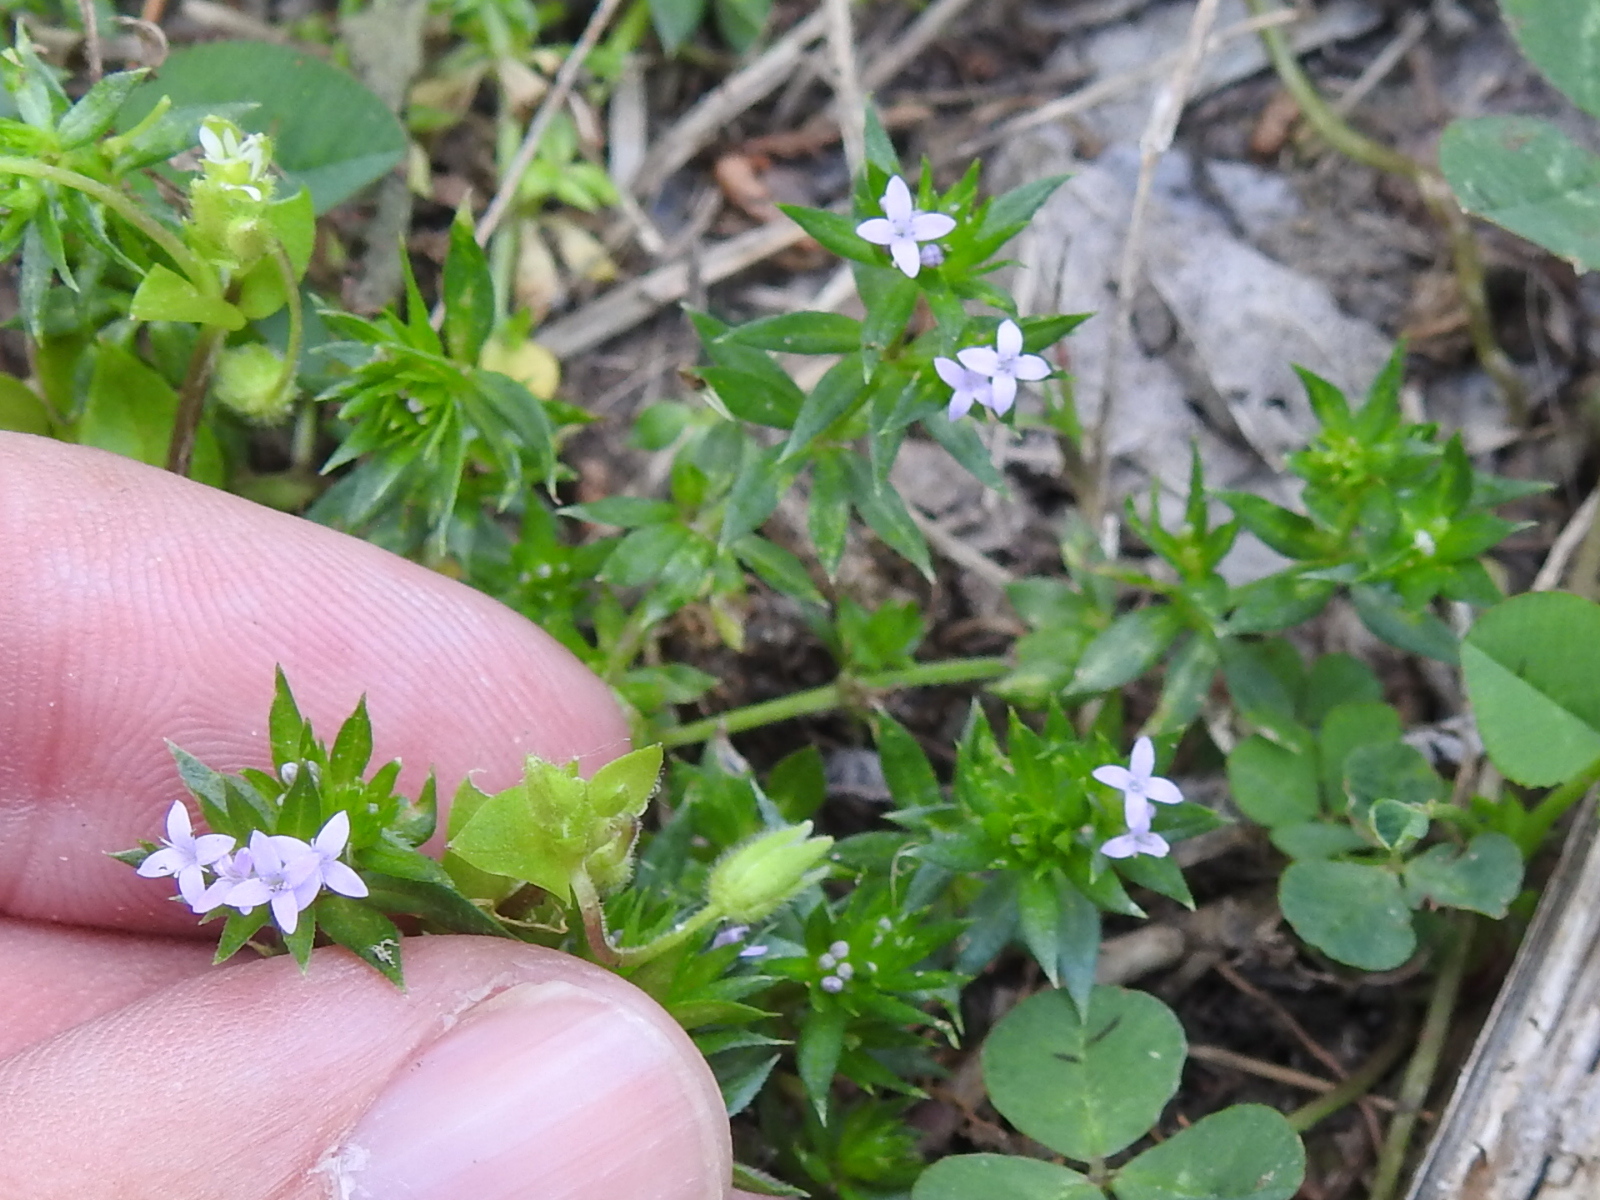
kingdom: Plantae
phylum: Tracheophyta
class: Magnoliopsida
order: Gentianales
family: Rubiaceae
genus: Sherardia
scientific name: Sherardia arvensis
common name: Field madder
